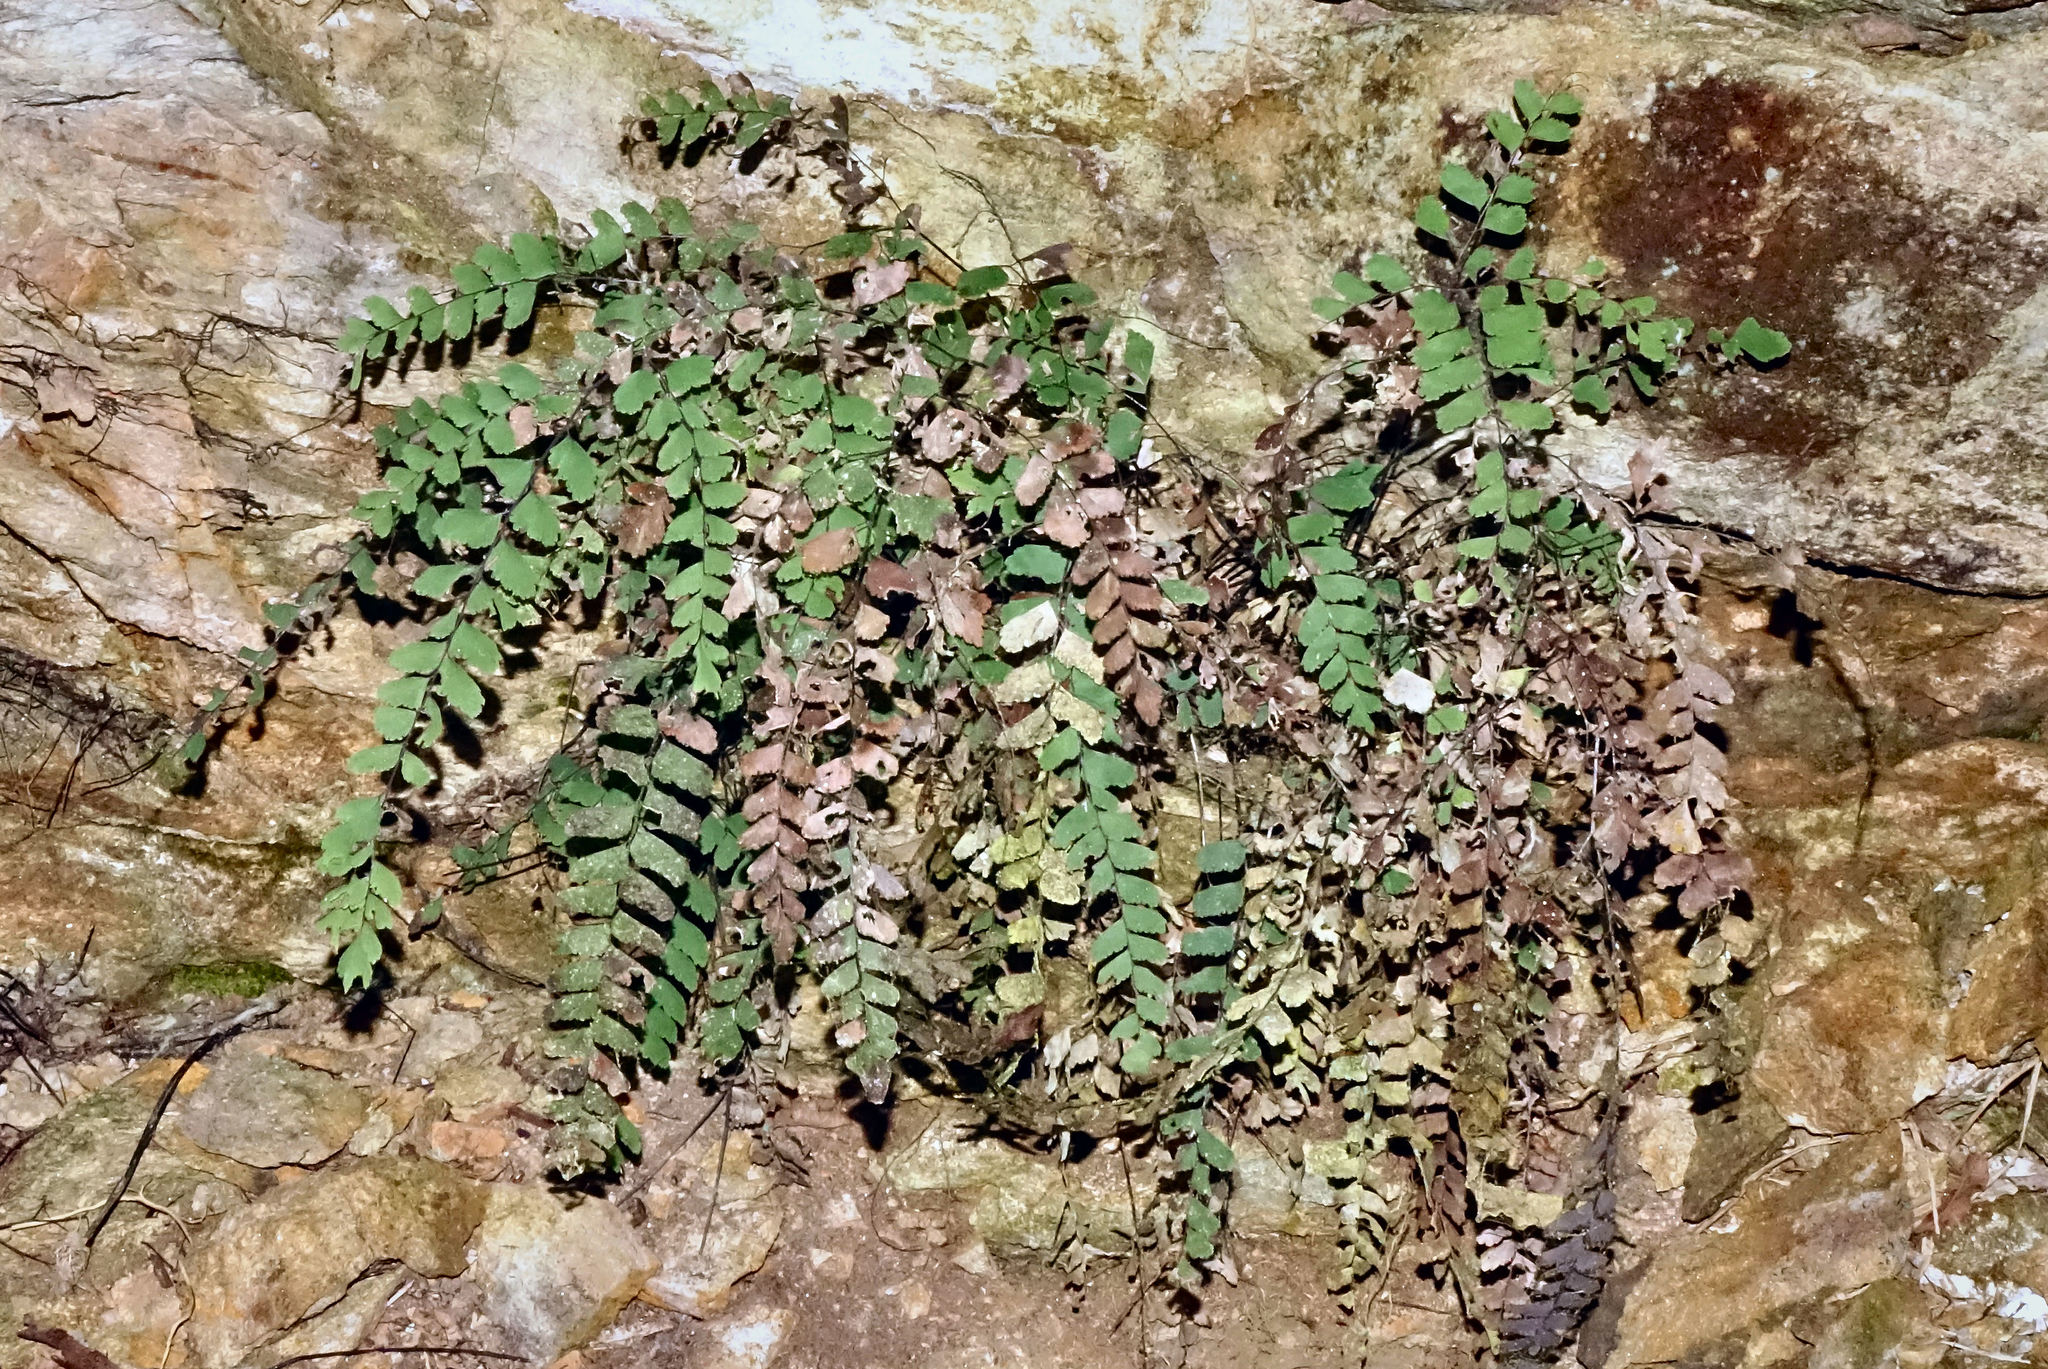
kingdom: Plantae
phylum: Tracheophyta
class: Polypodiopsida
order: Polypodiales
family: Pteridaceae
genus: Adiantum
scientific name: Adiantum cunninghamii
